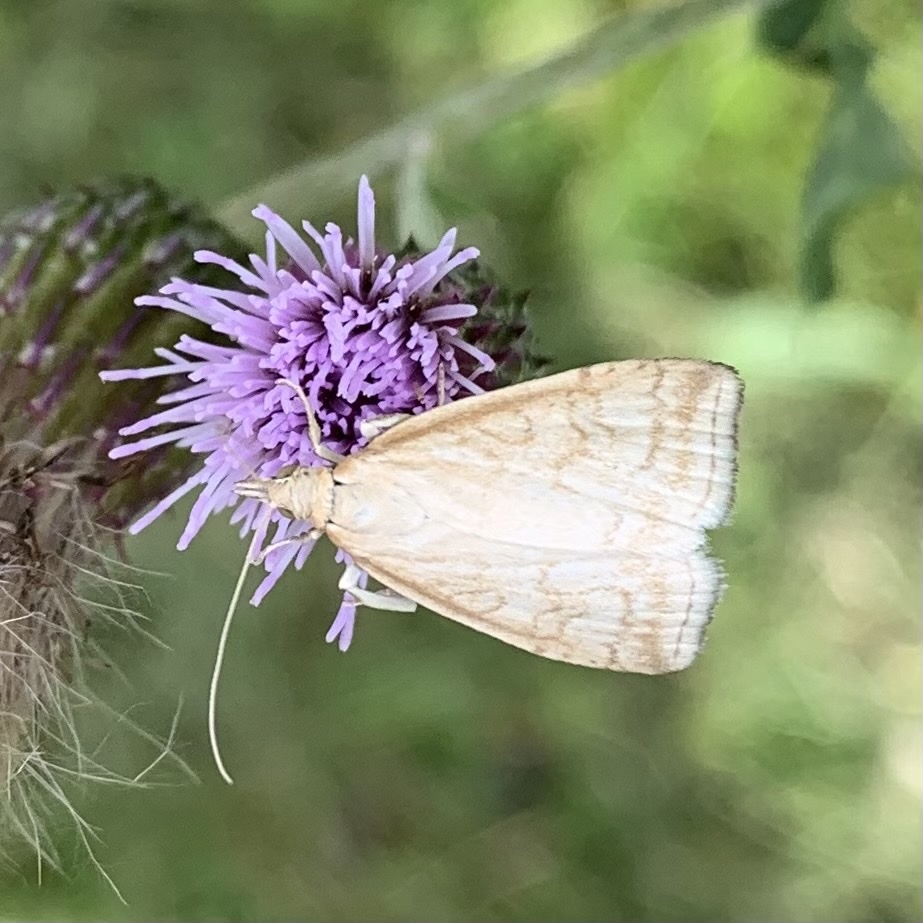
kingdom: Animalia
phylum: Arthropoda
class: Insecta
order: Lepidoptera
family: Crambidae
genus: Udea
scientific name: Udea lutealis
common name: Pale straw pearl
